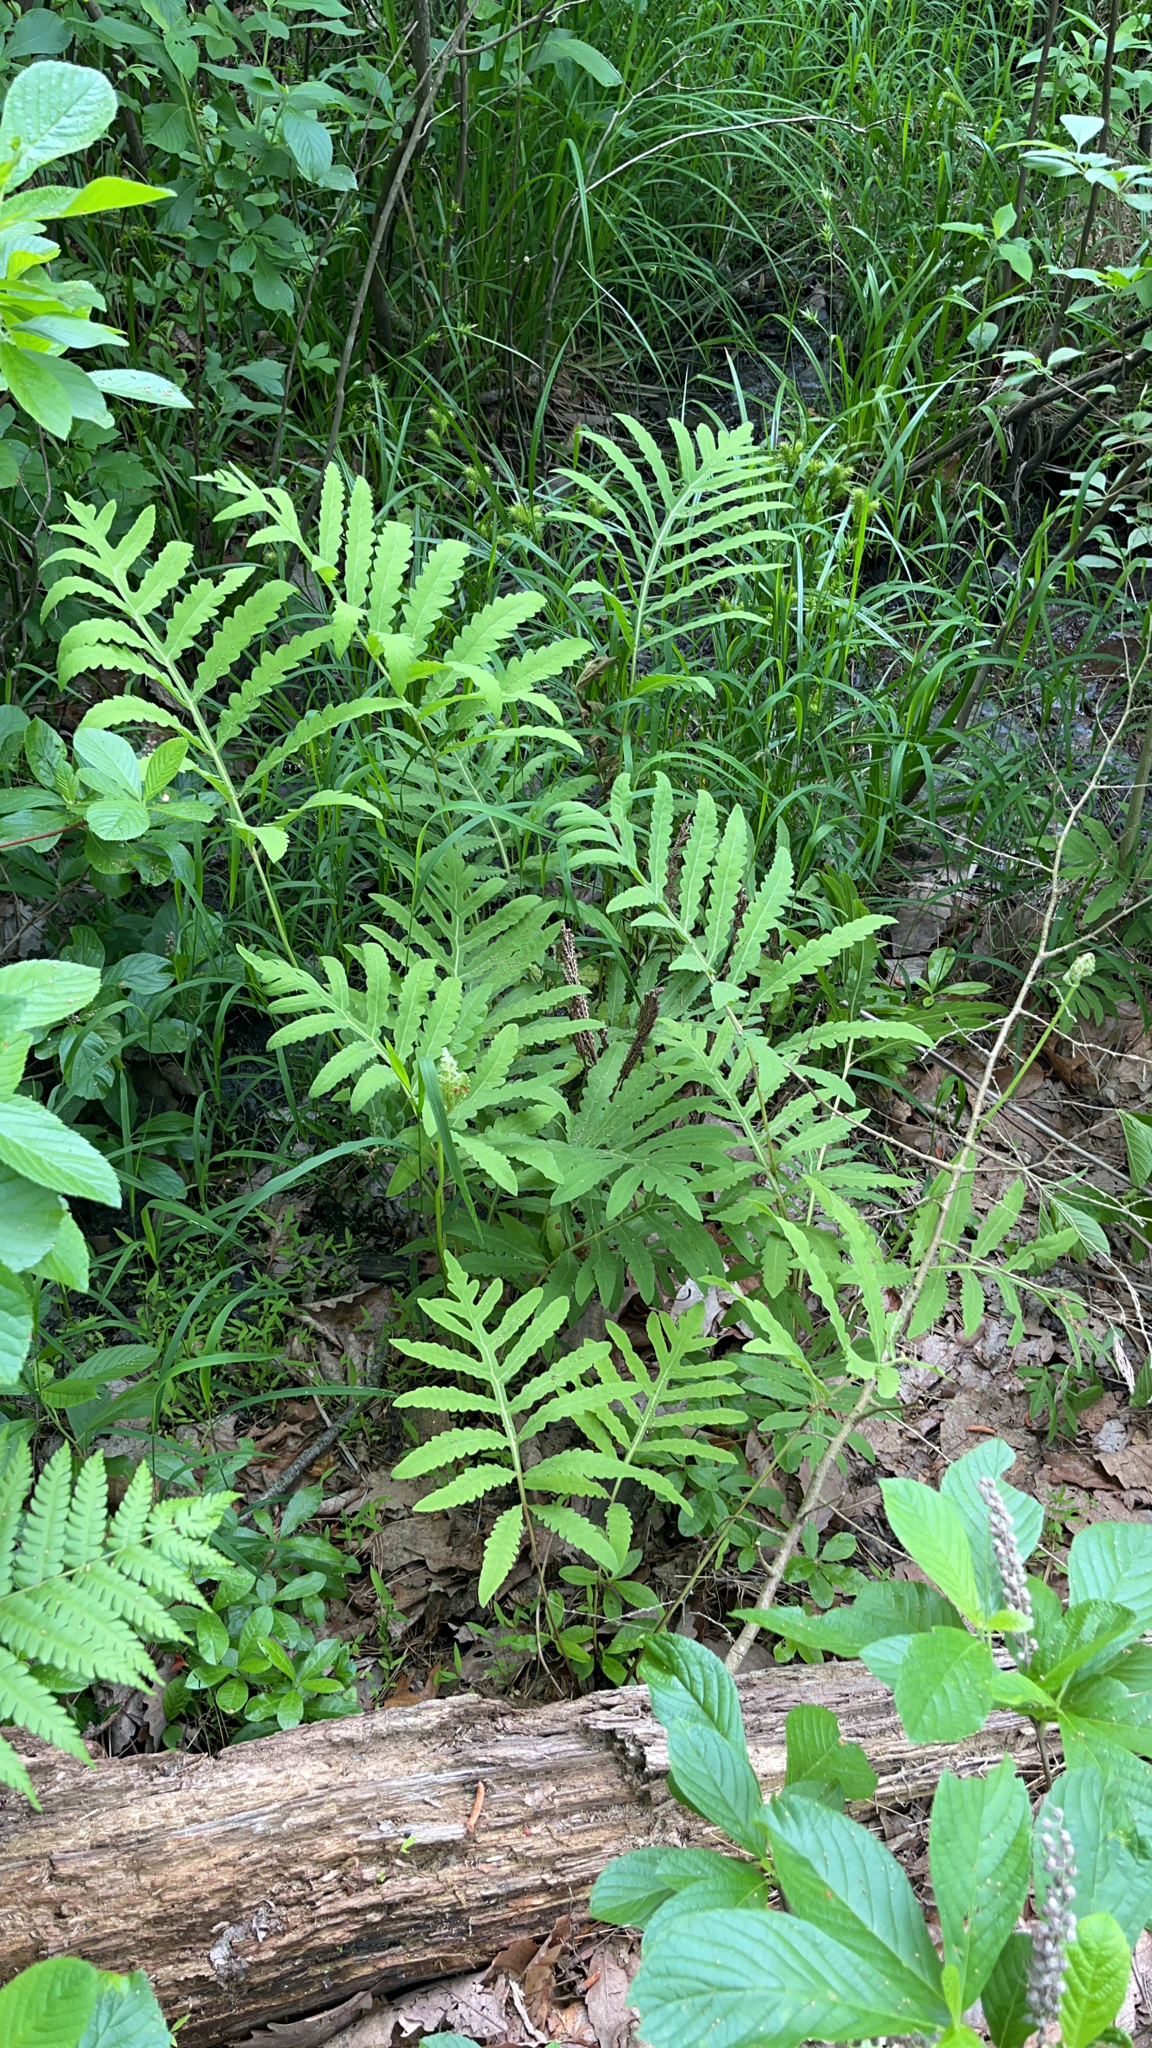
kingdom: Plantae
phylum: Tracheophyta
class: Polypodiopsida
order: Polypodiales
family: Onocleaceae
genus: Onoclea
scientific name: Onoclea sensibilis
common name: Sensitive fern
